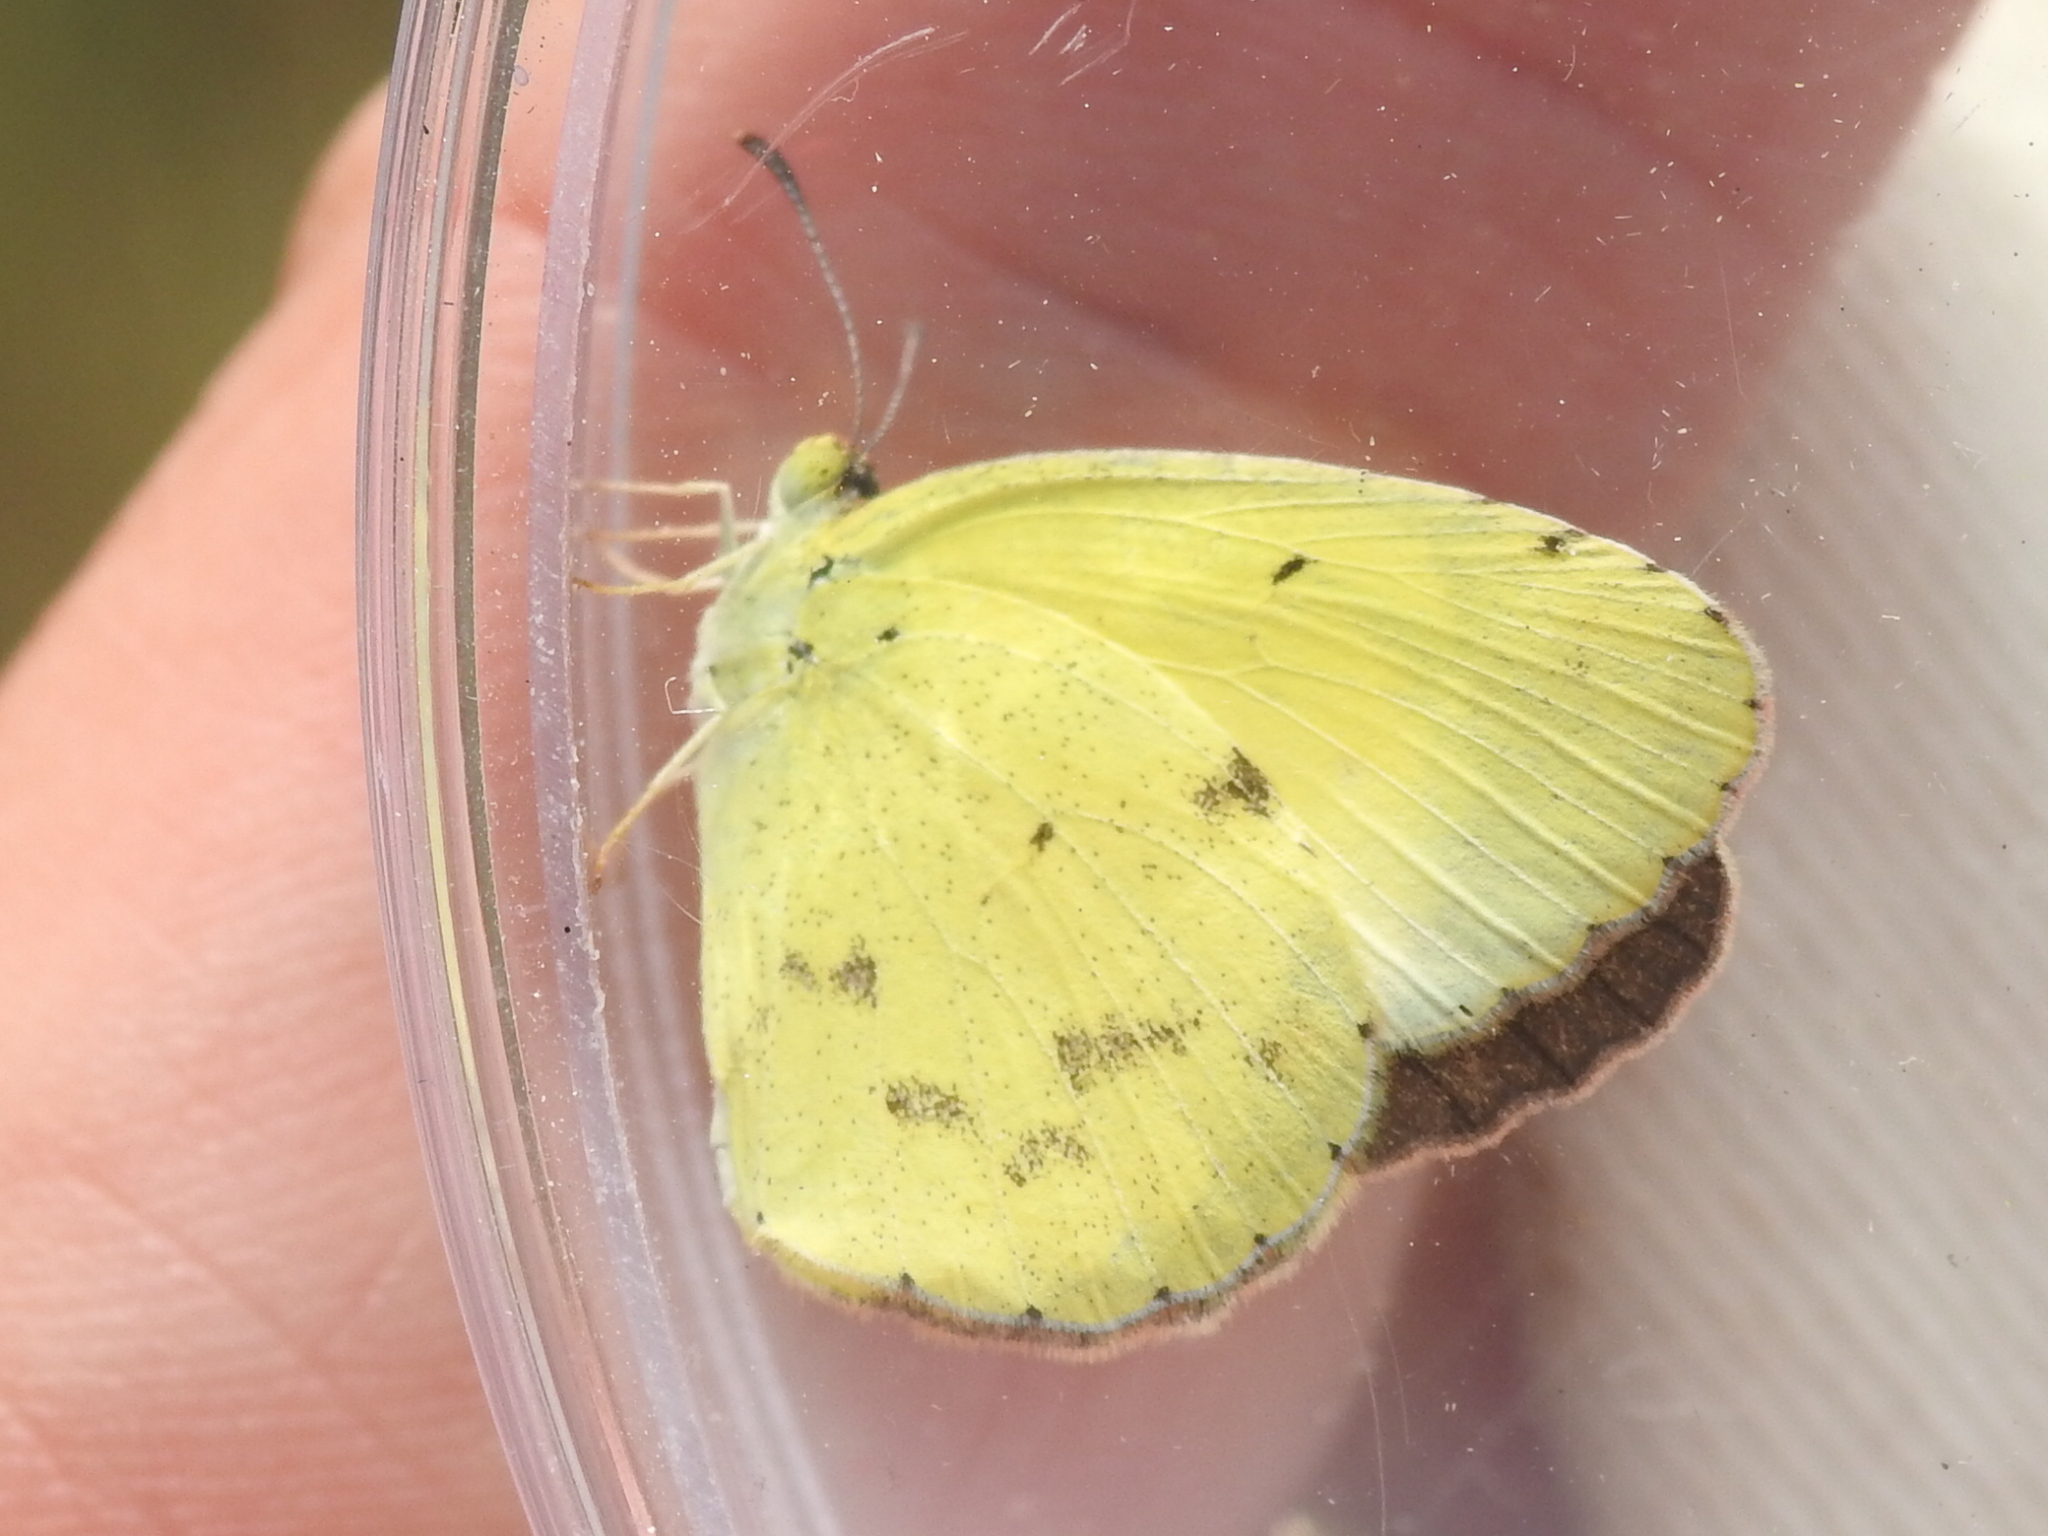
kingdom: Animalia
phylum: Arthropoda
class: Insecta
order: Lepidoptera
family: Pieridae
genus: Pyrisitia
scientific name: Pyrisitia lisa
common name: Little yellow
